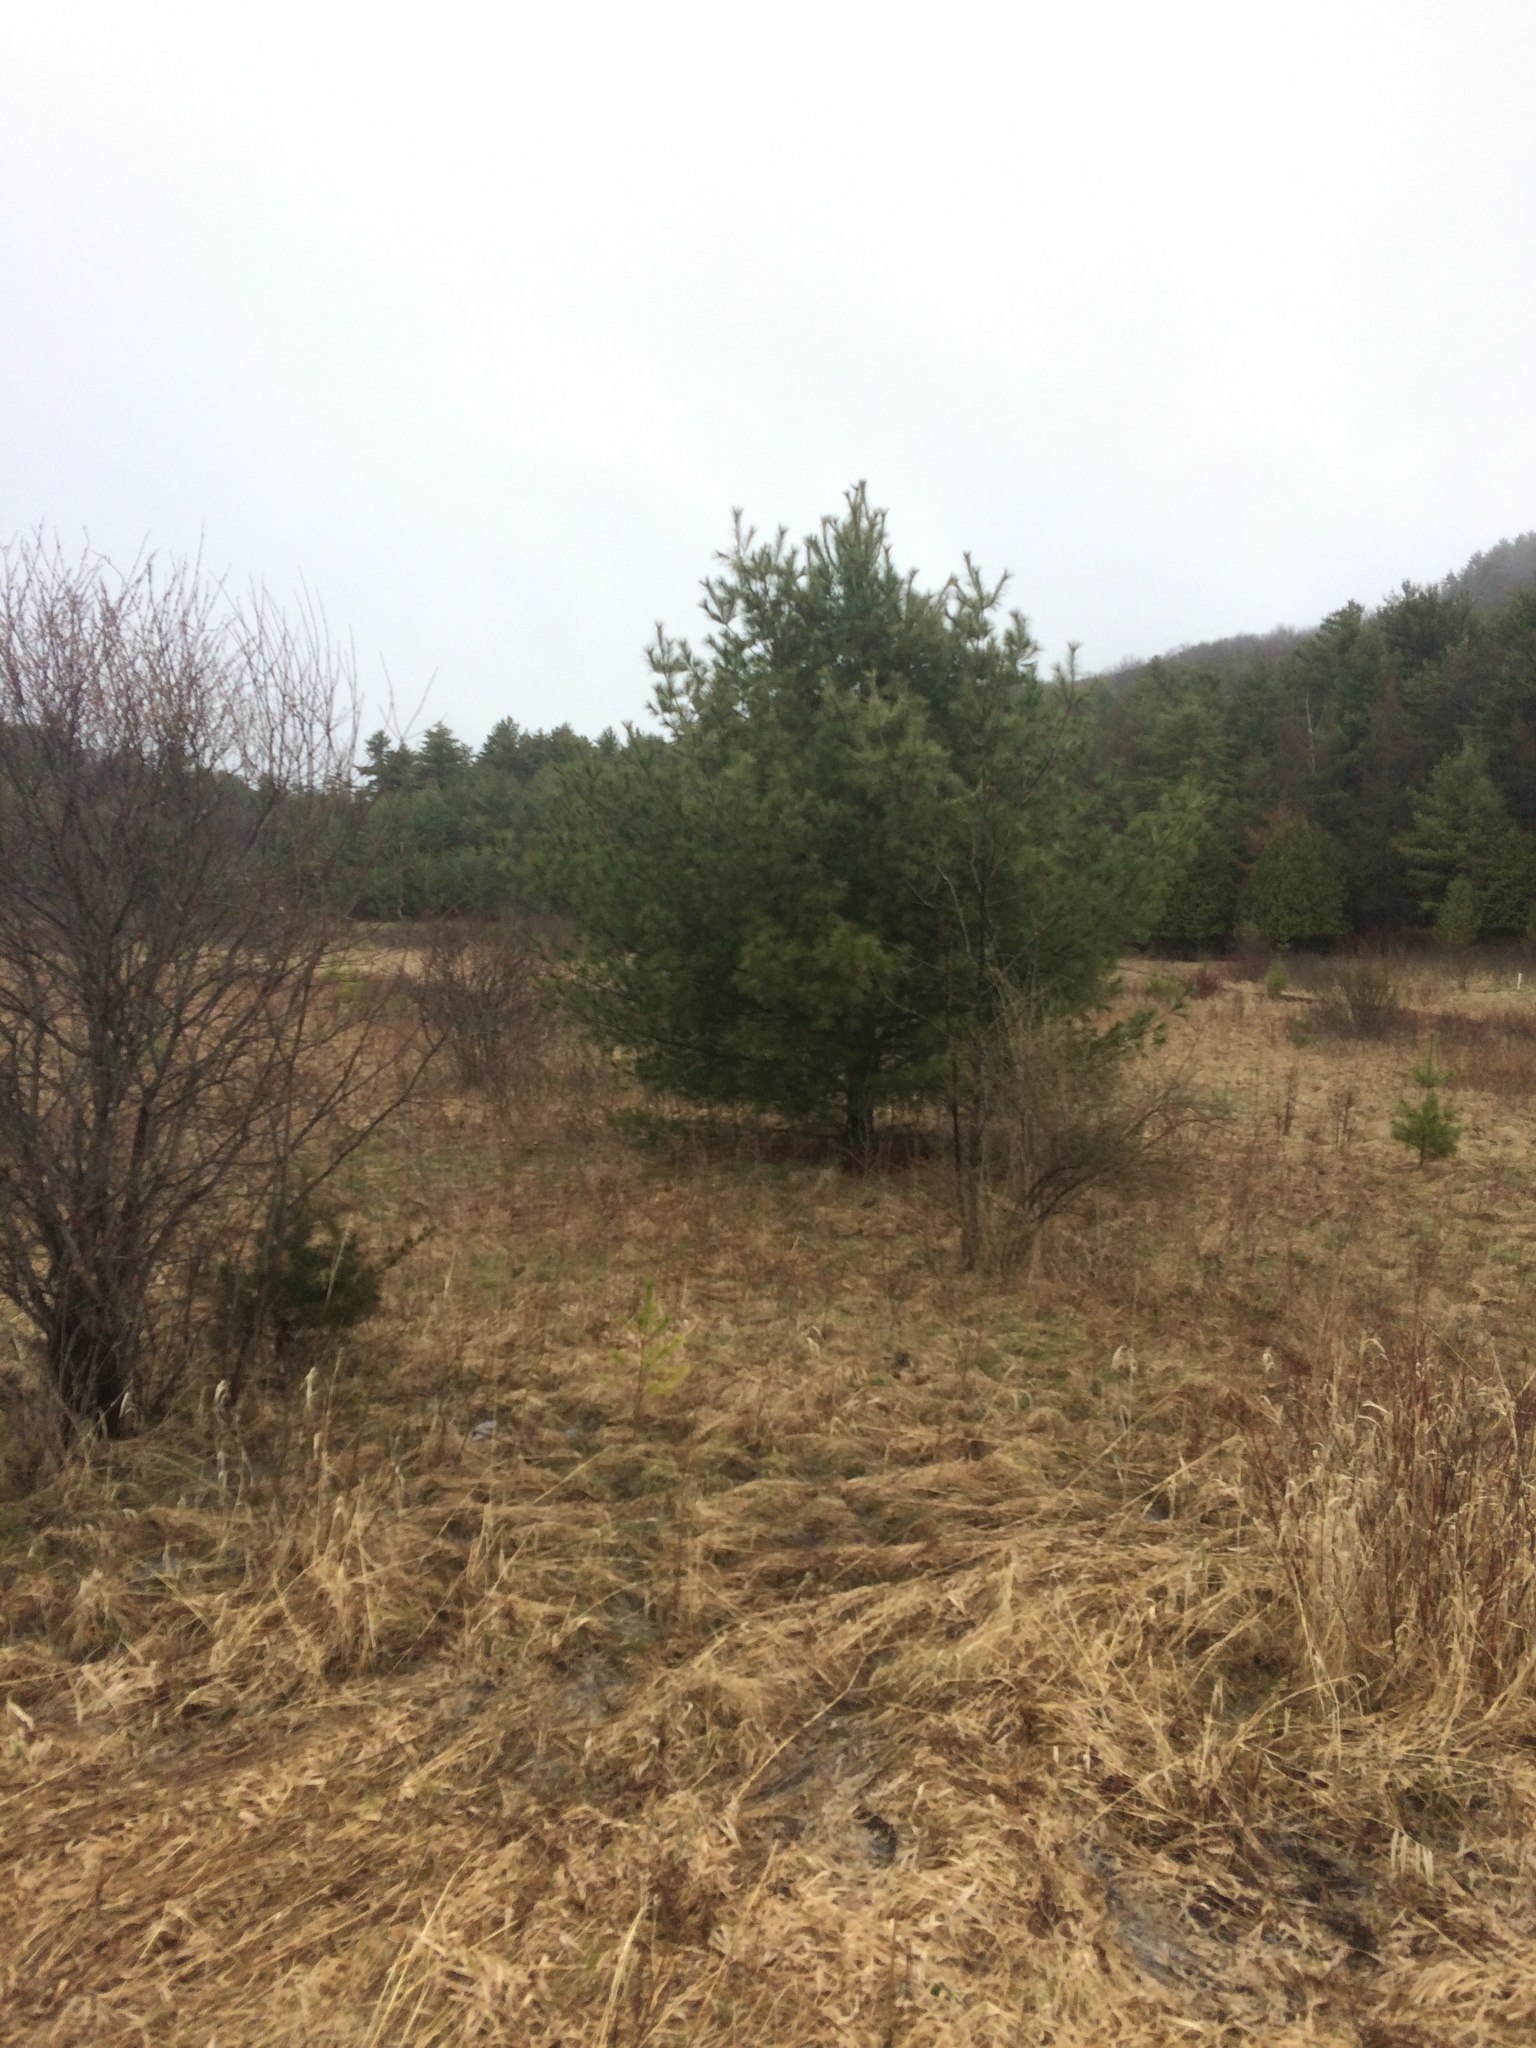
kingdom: Plantae
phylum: Tracheophyta
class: Pinopsida
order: Pinales
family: Pinaceae
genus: Pinus
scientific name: Pinus strobus
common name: Weymouth pine
